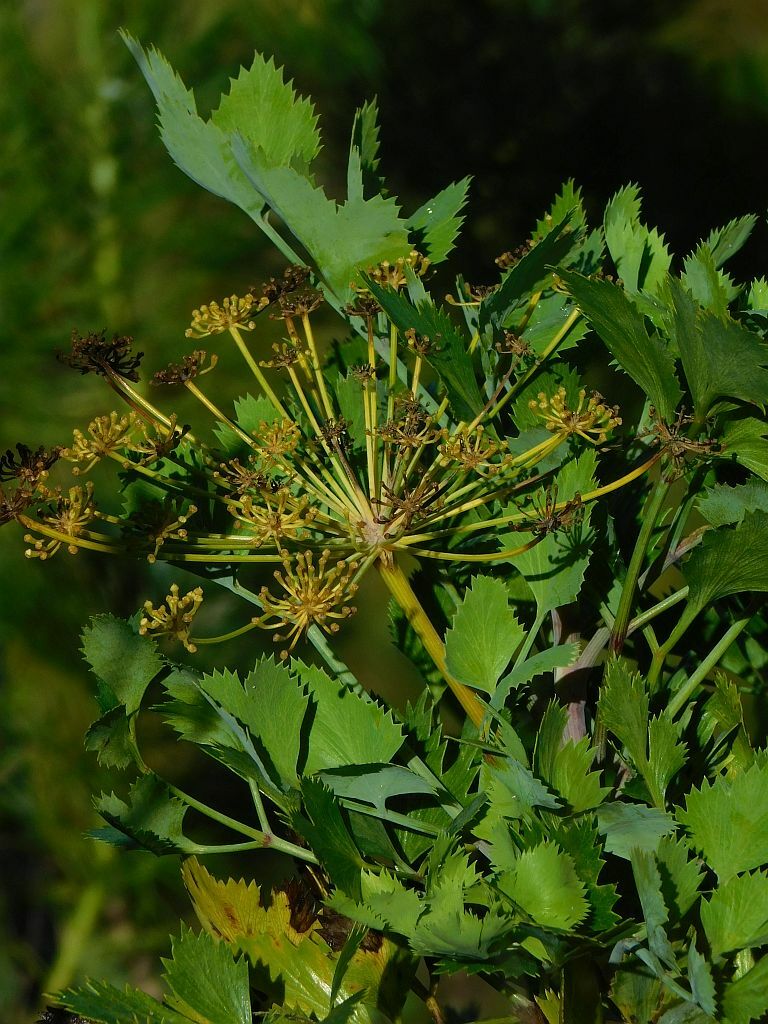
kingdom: Plantae
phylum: Tracheophyta
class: Magnoliopsida
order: Apiales
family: Apiaceae
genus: Notobubon
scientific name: Notobubon galbanum
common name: Blisterbush
